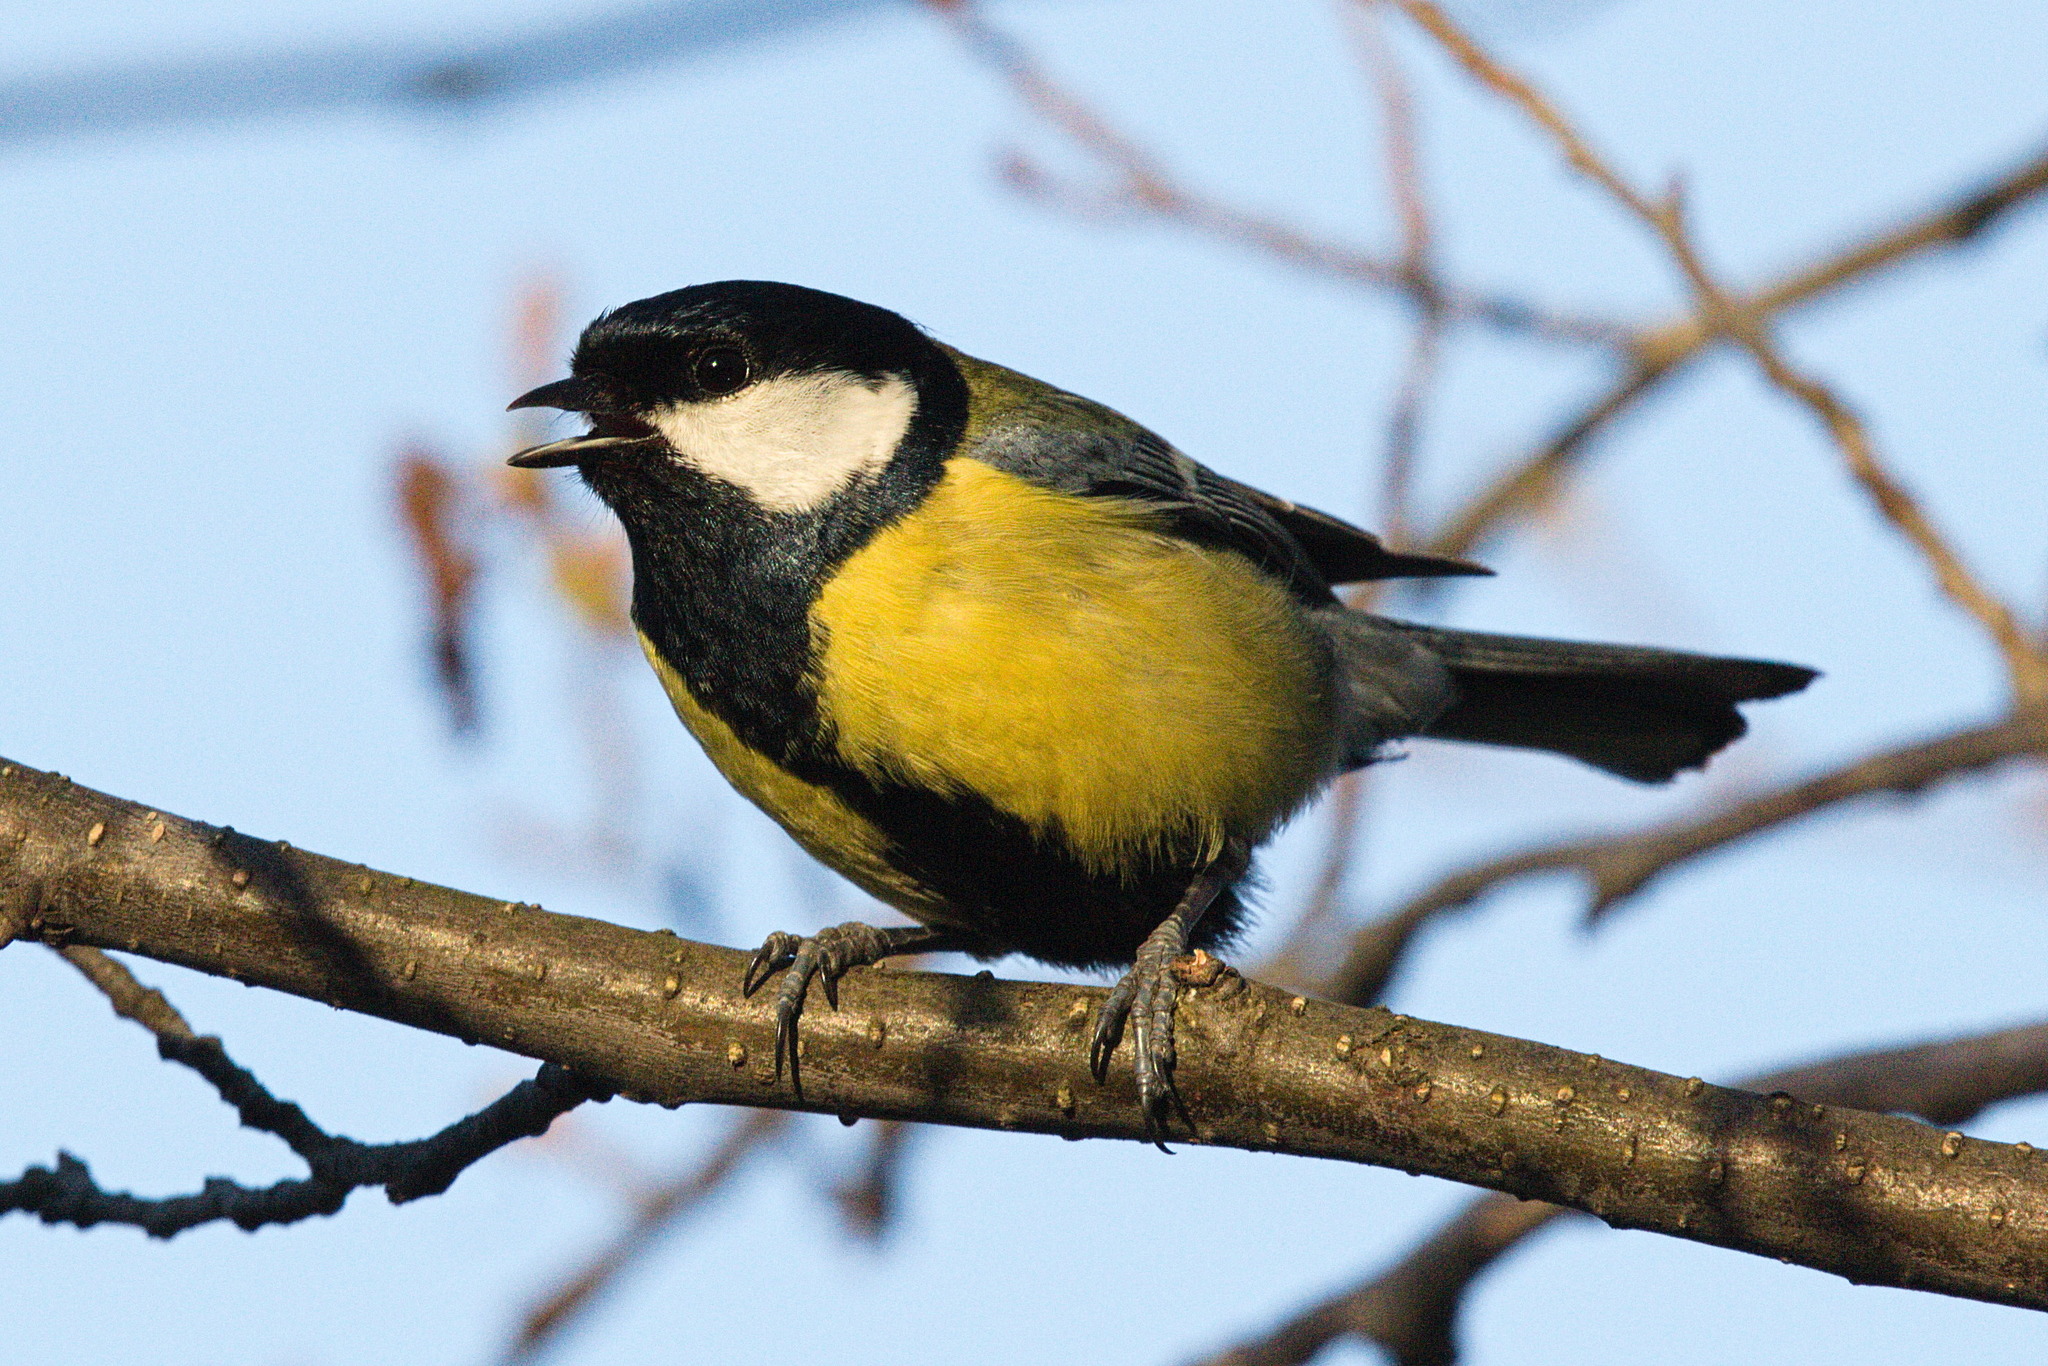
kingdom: Animalia
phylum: Chordata
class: Aves
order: Passeriformes
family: Paridae
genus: Parus
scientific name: Parus major
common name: Great tit
